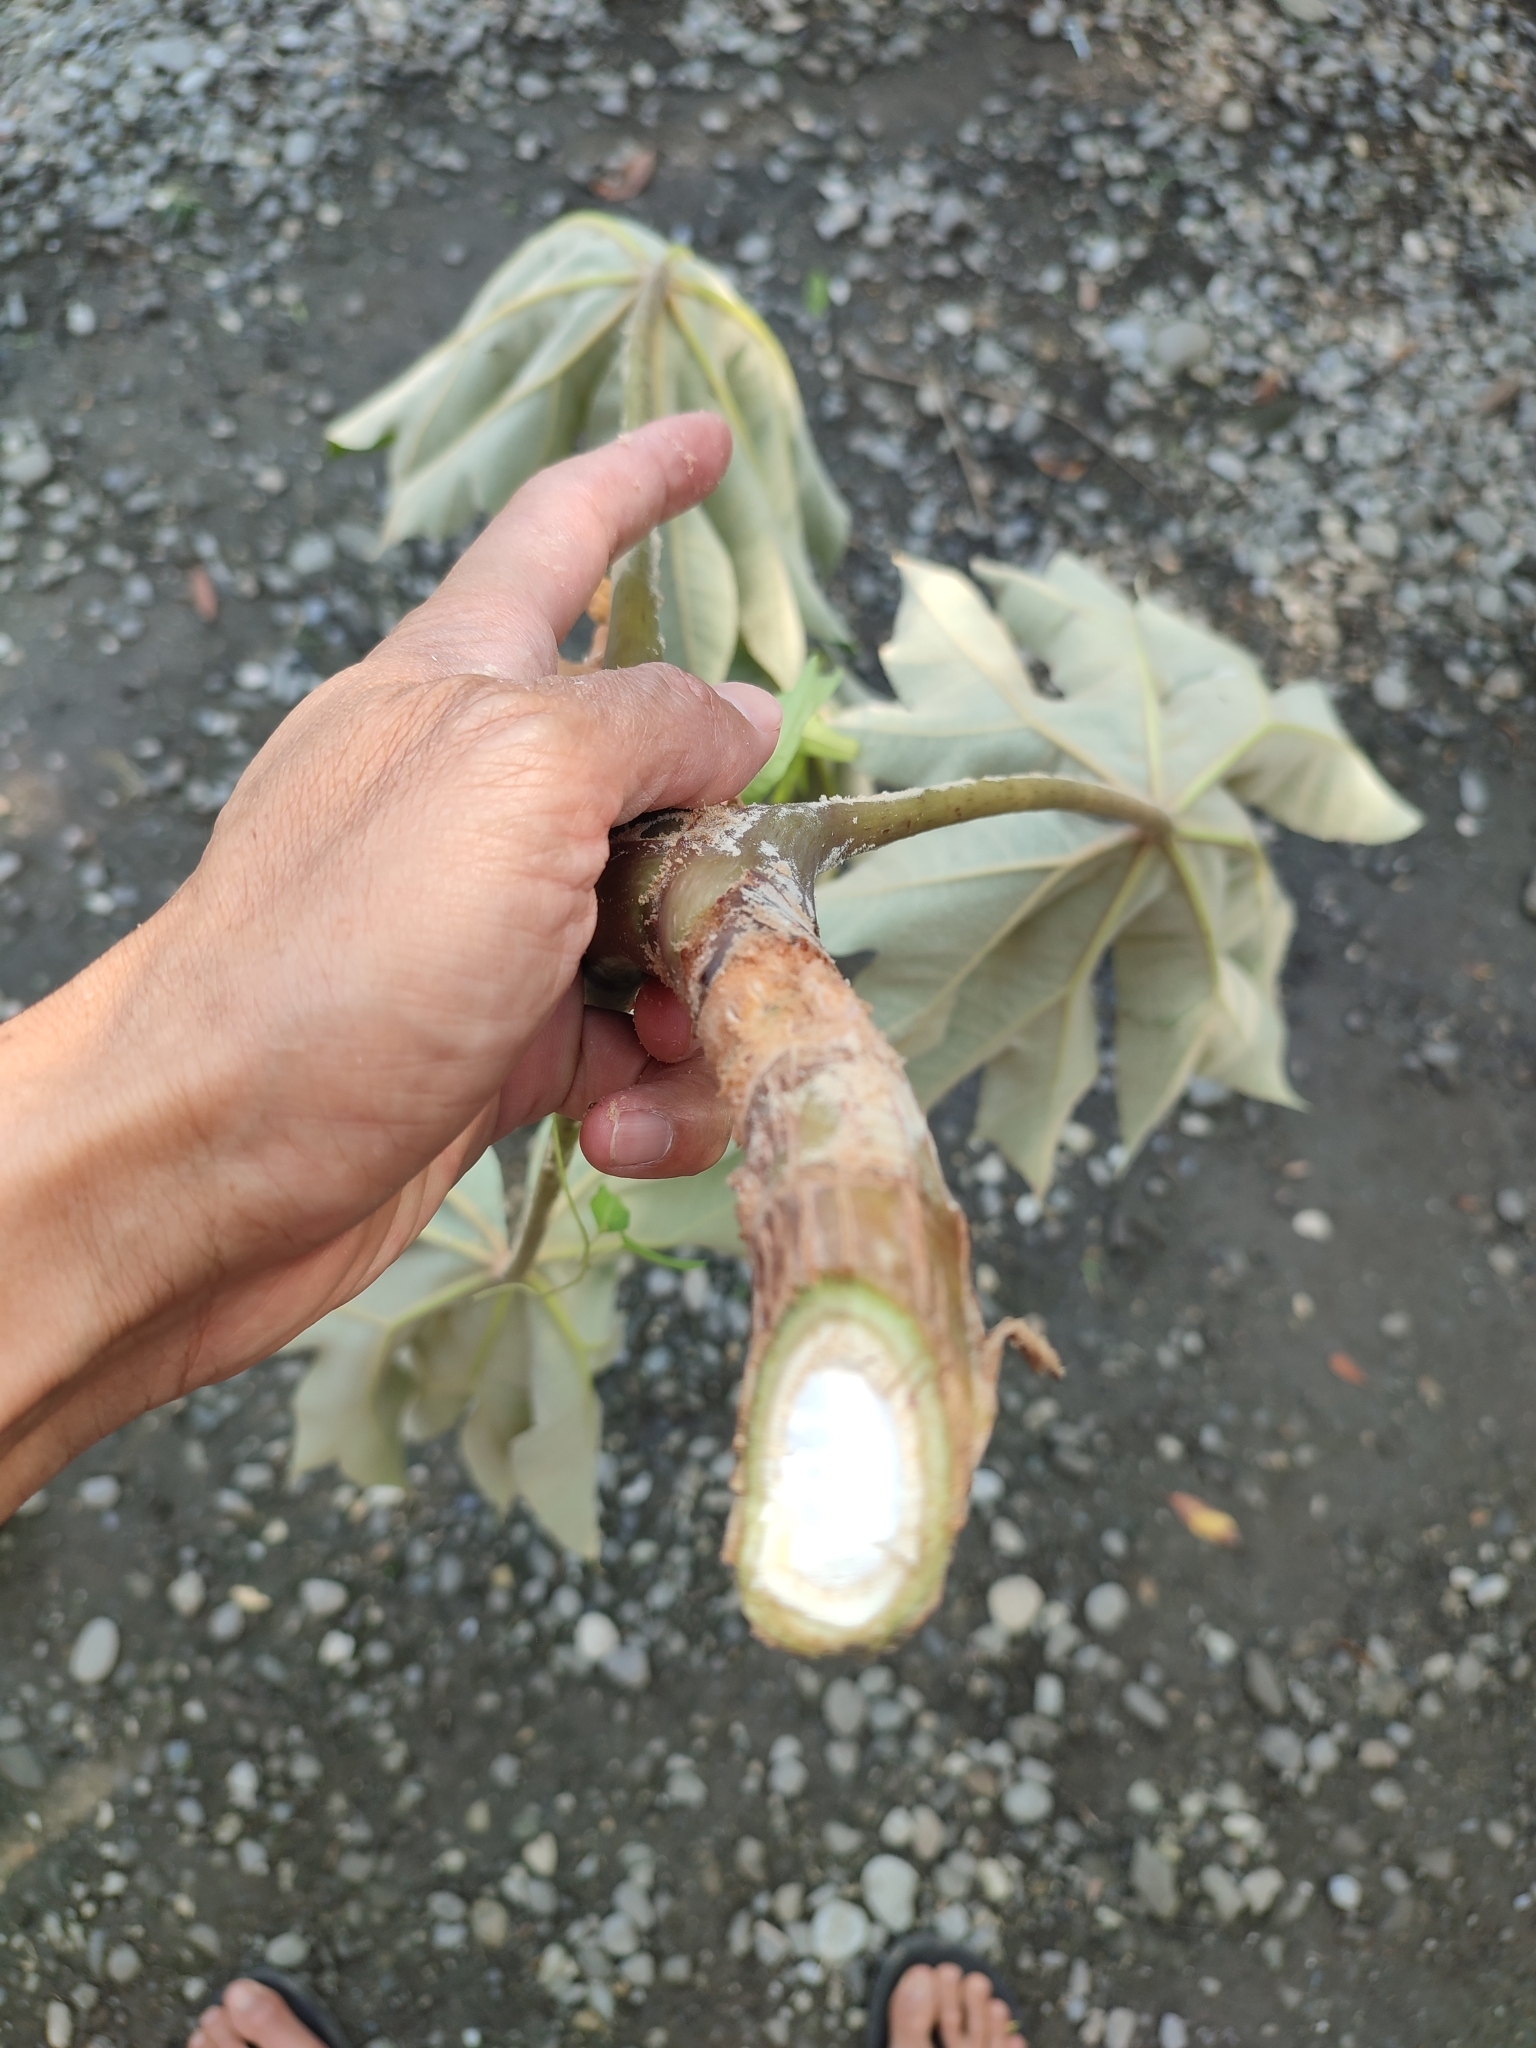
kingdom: Plantae
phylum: Tracheophyta
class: Magnoliopsida
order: Apiales
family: Araliaceae
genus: Tetrapanax
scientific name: Tetrapanax papyrifer
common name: Rice-paper plant
